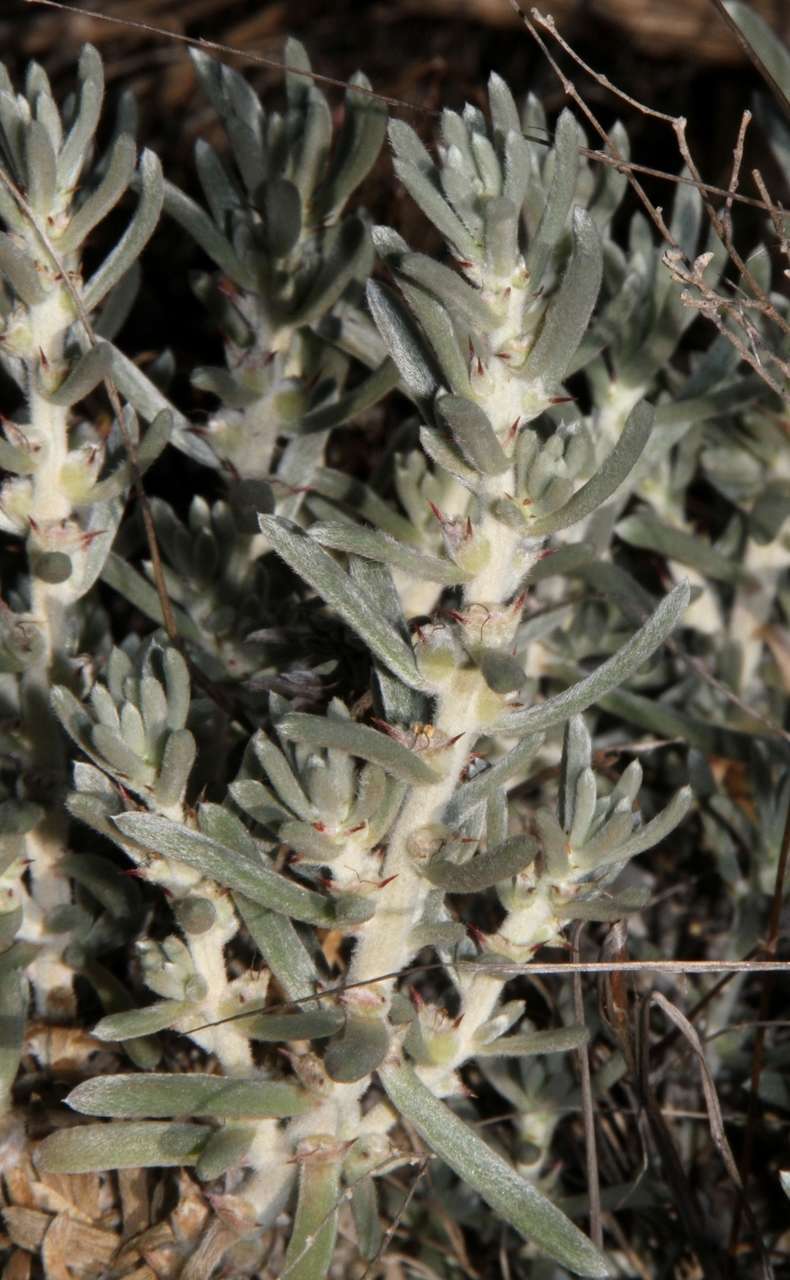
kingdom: Plantae
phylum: Tracheophyta
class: Magnoliopsida
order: Caryophyllales
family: Amaranthaceae
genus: Sclerolaena
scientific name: Sclerolaena diacantha
